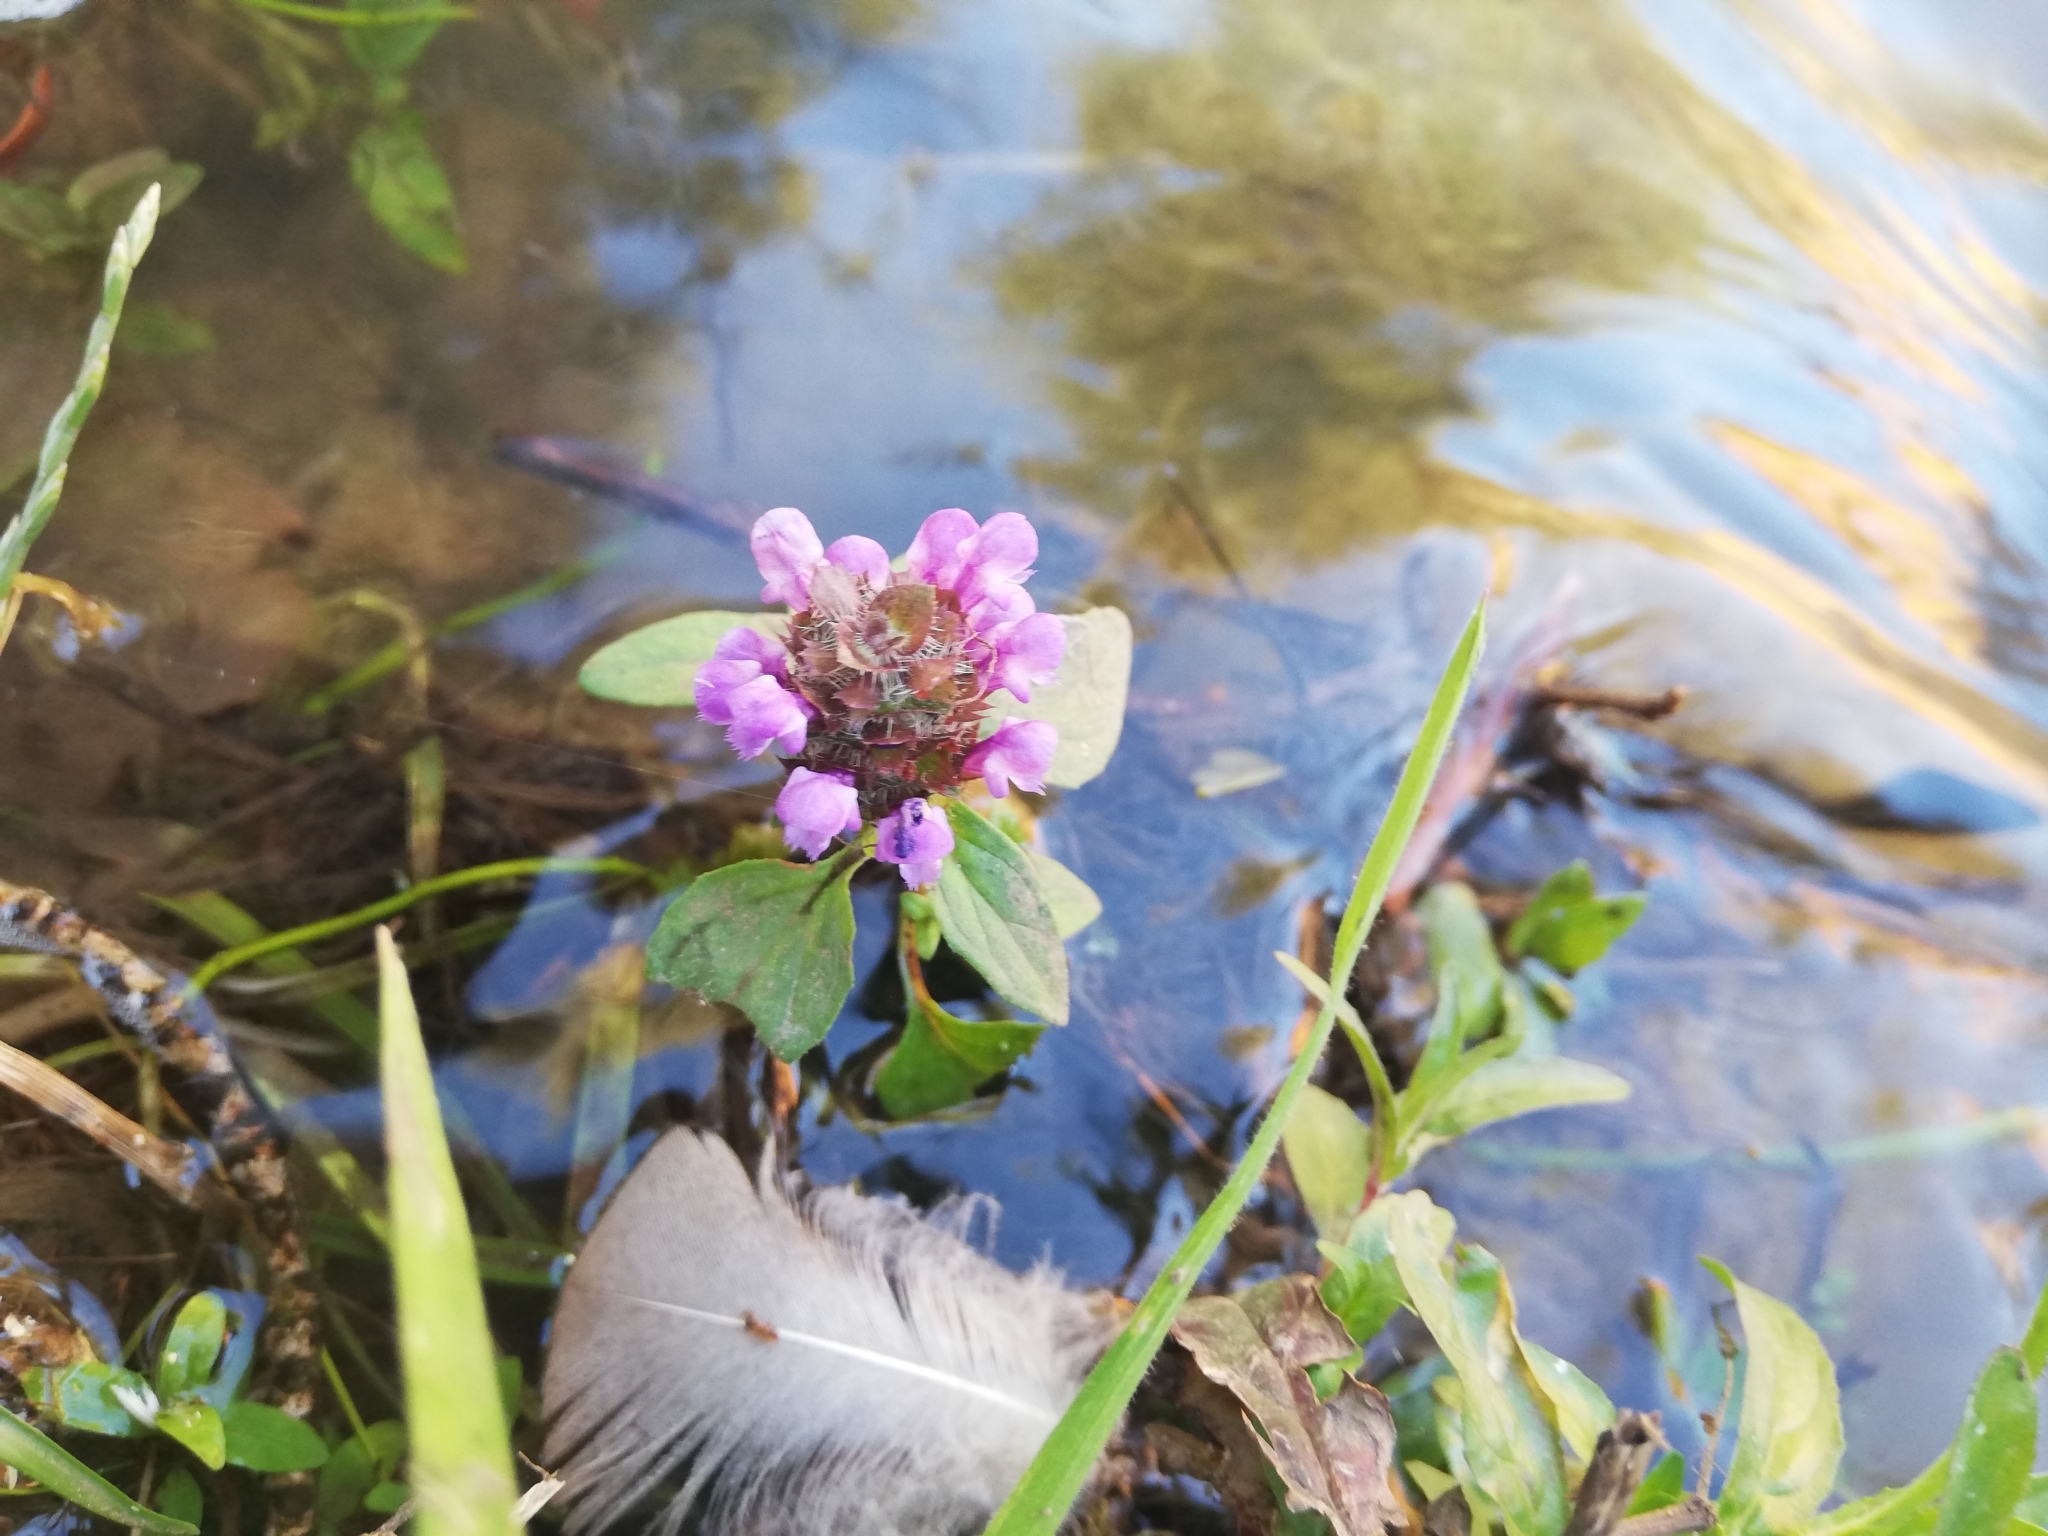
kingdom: Plantae
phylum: Tracheophyta
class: Magnoliopsida
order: Lamiales
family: Lamiaceae
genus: Prunella
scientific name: Prunella vulgaris
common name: Heal-all
